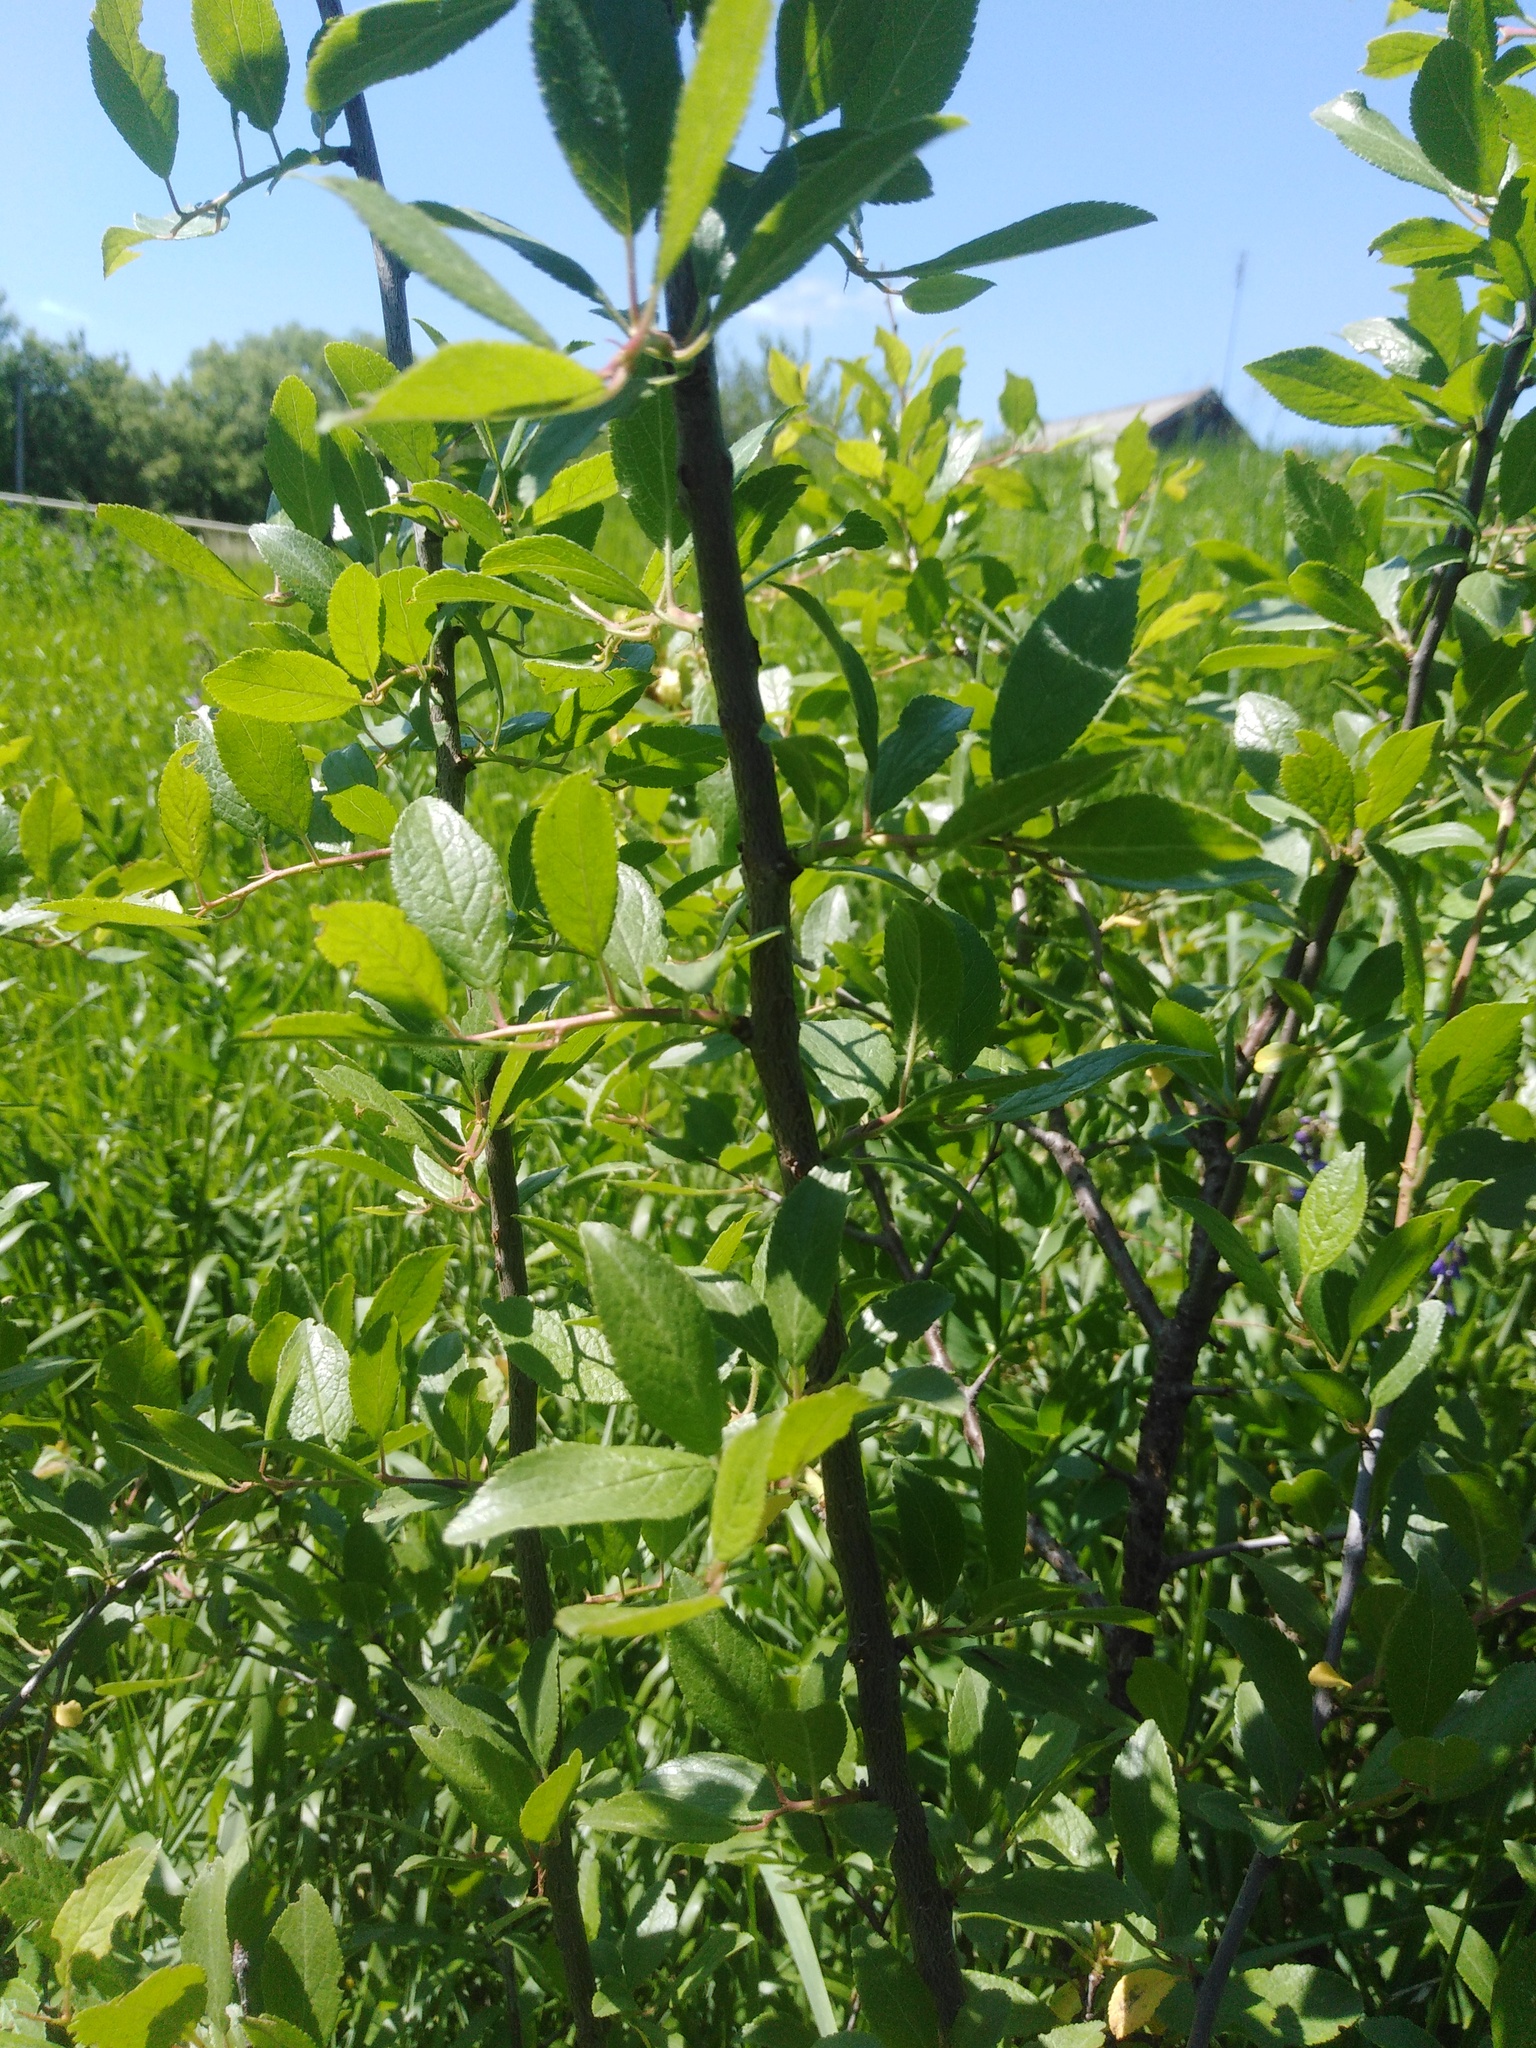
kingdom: Plantae
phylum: Tracheophyta
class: Magnoliopsida
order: Rosales
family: Rosaceae
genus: Prunus
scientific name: Prunus spinosa
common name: Blackthorn
